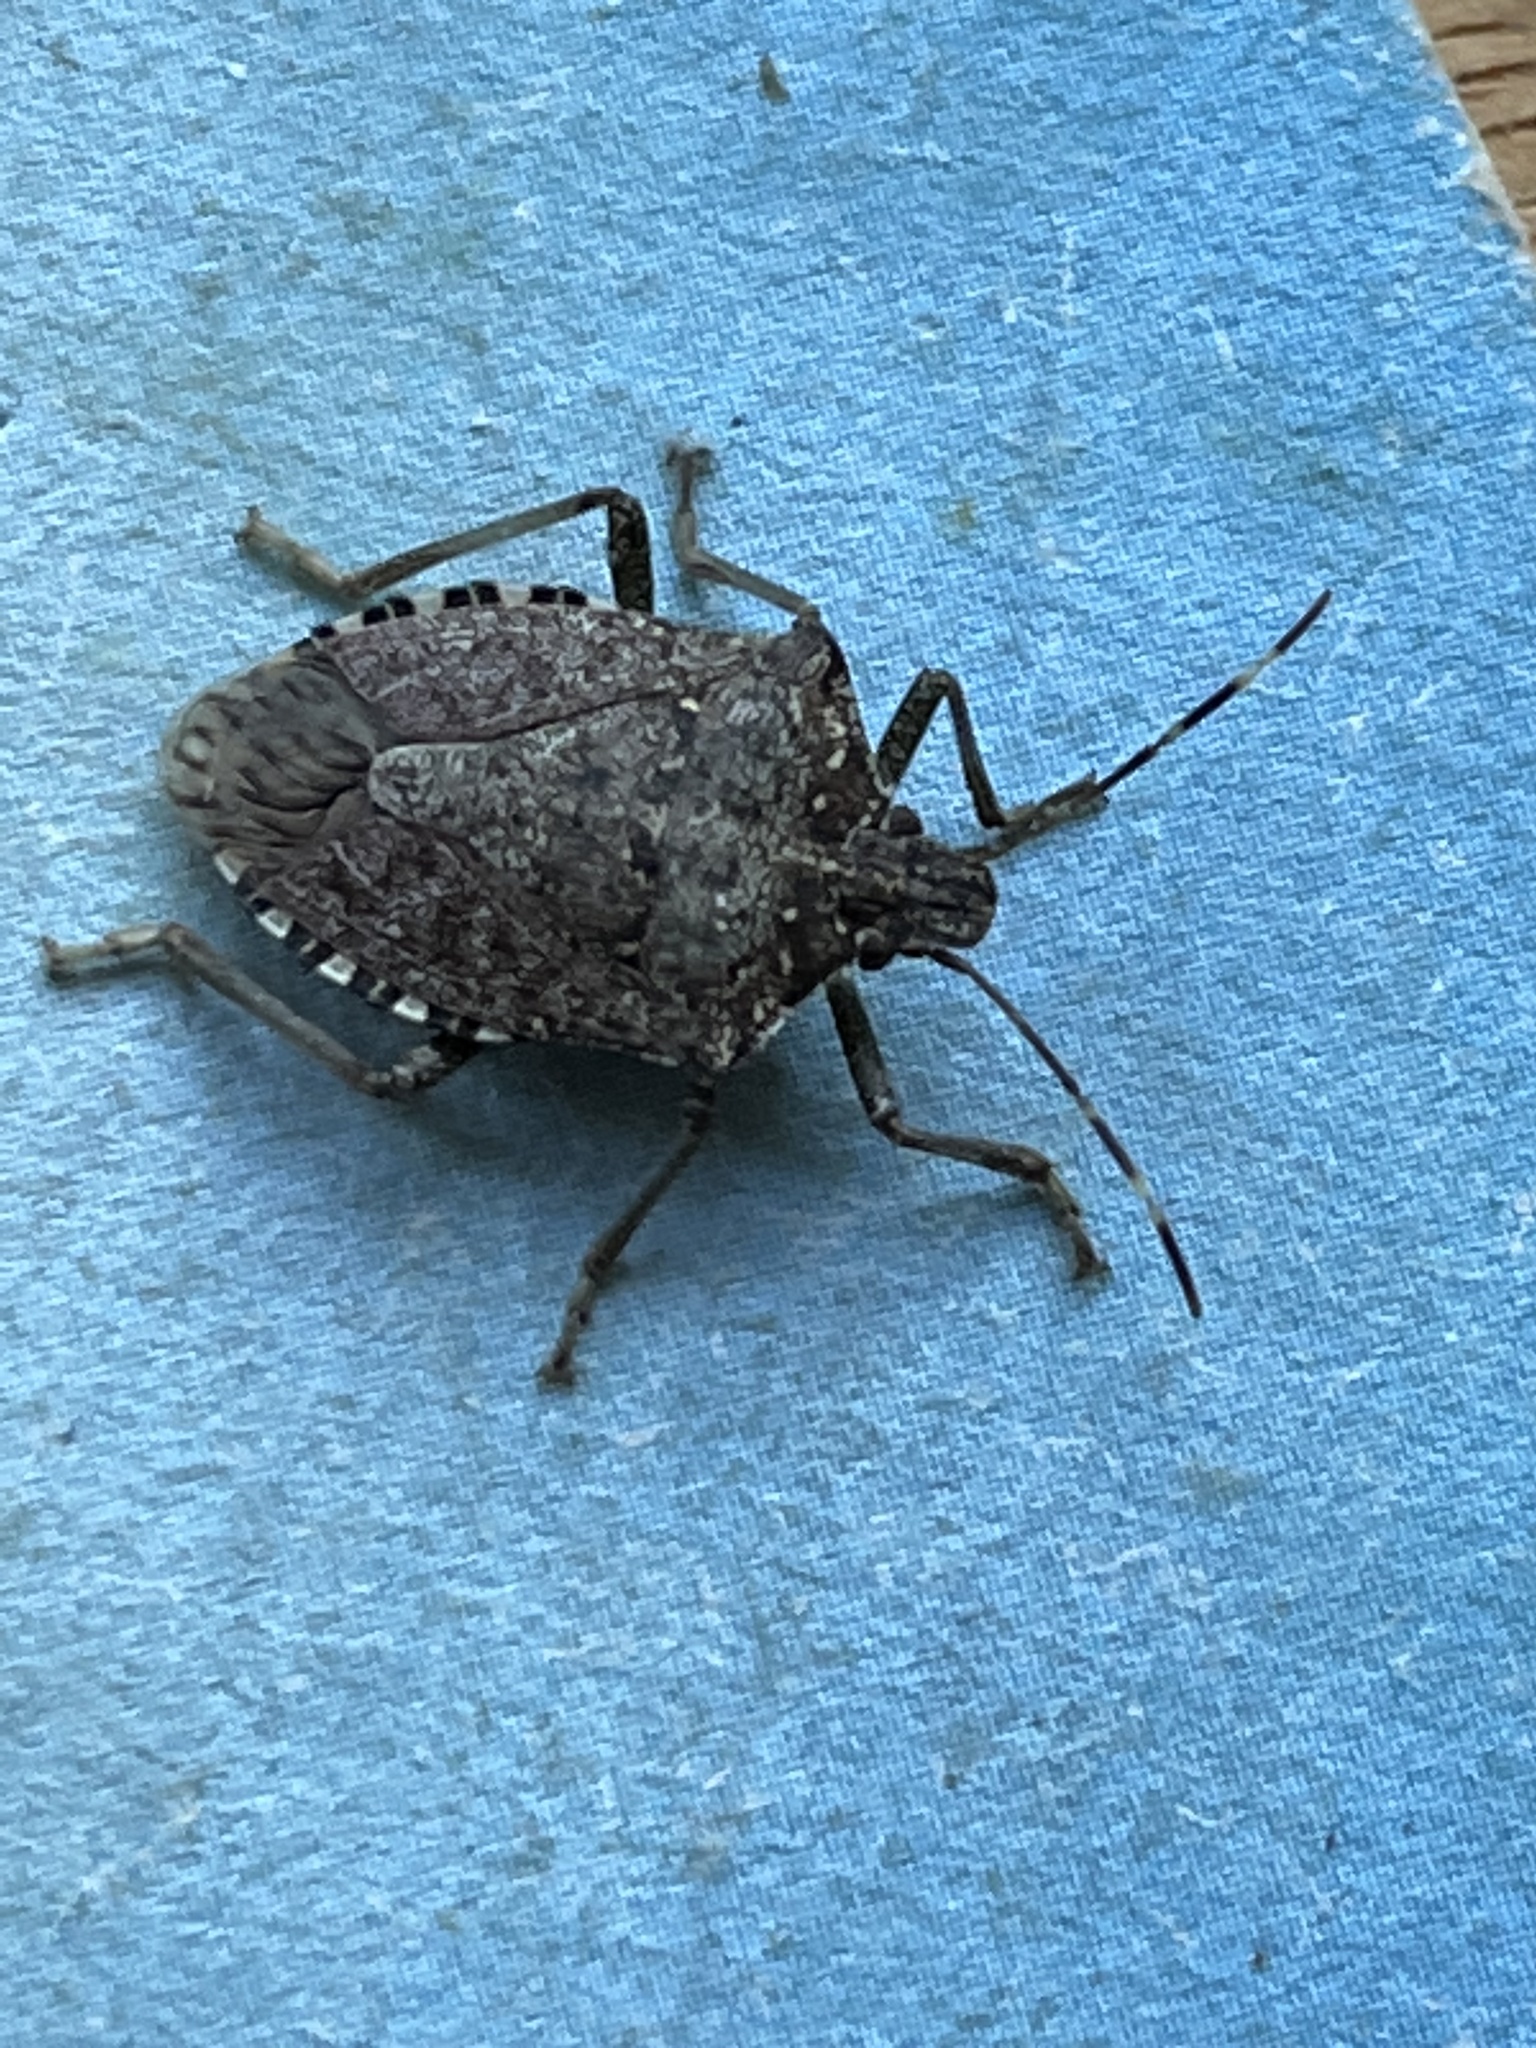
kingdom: Animalia
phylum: Arthropoda
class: Insecta
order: Hemiptera
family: Pentatomidae
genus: Halyomorpha
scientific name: Halyomorpha halys
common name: Brown marmorated stink bug
